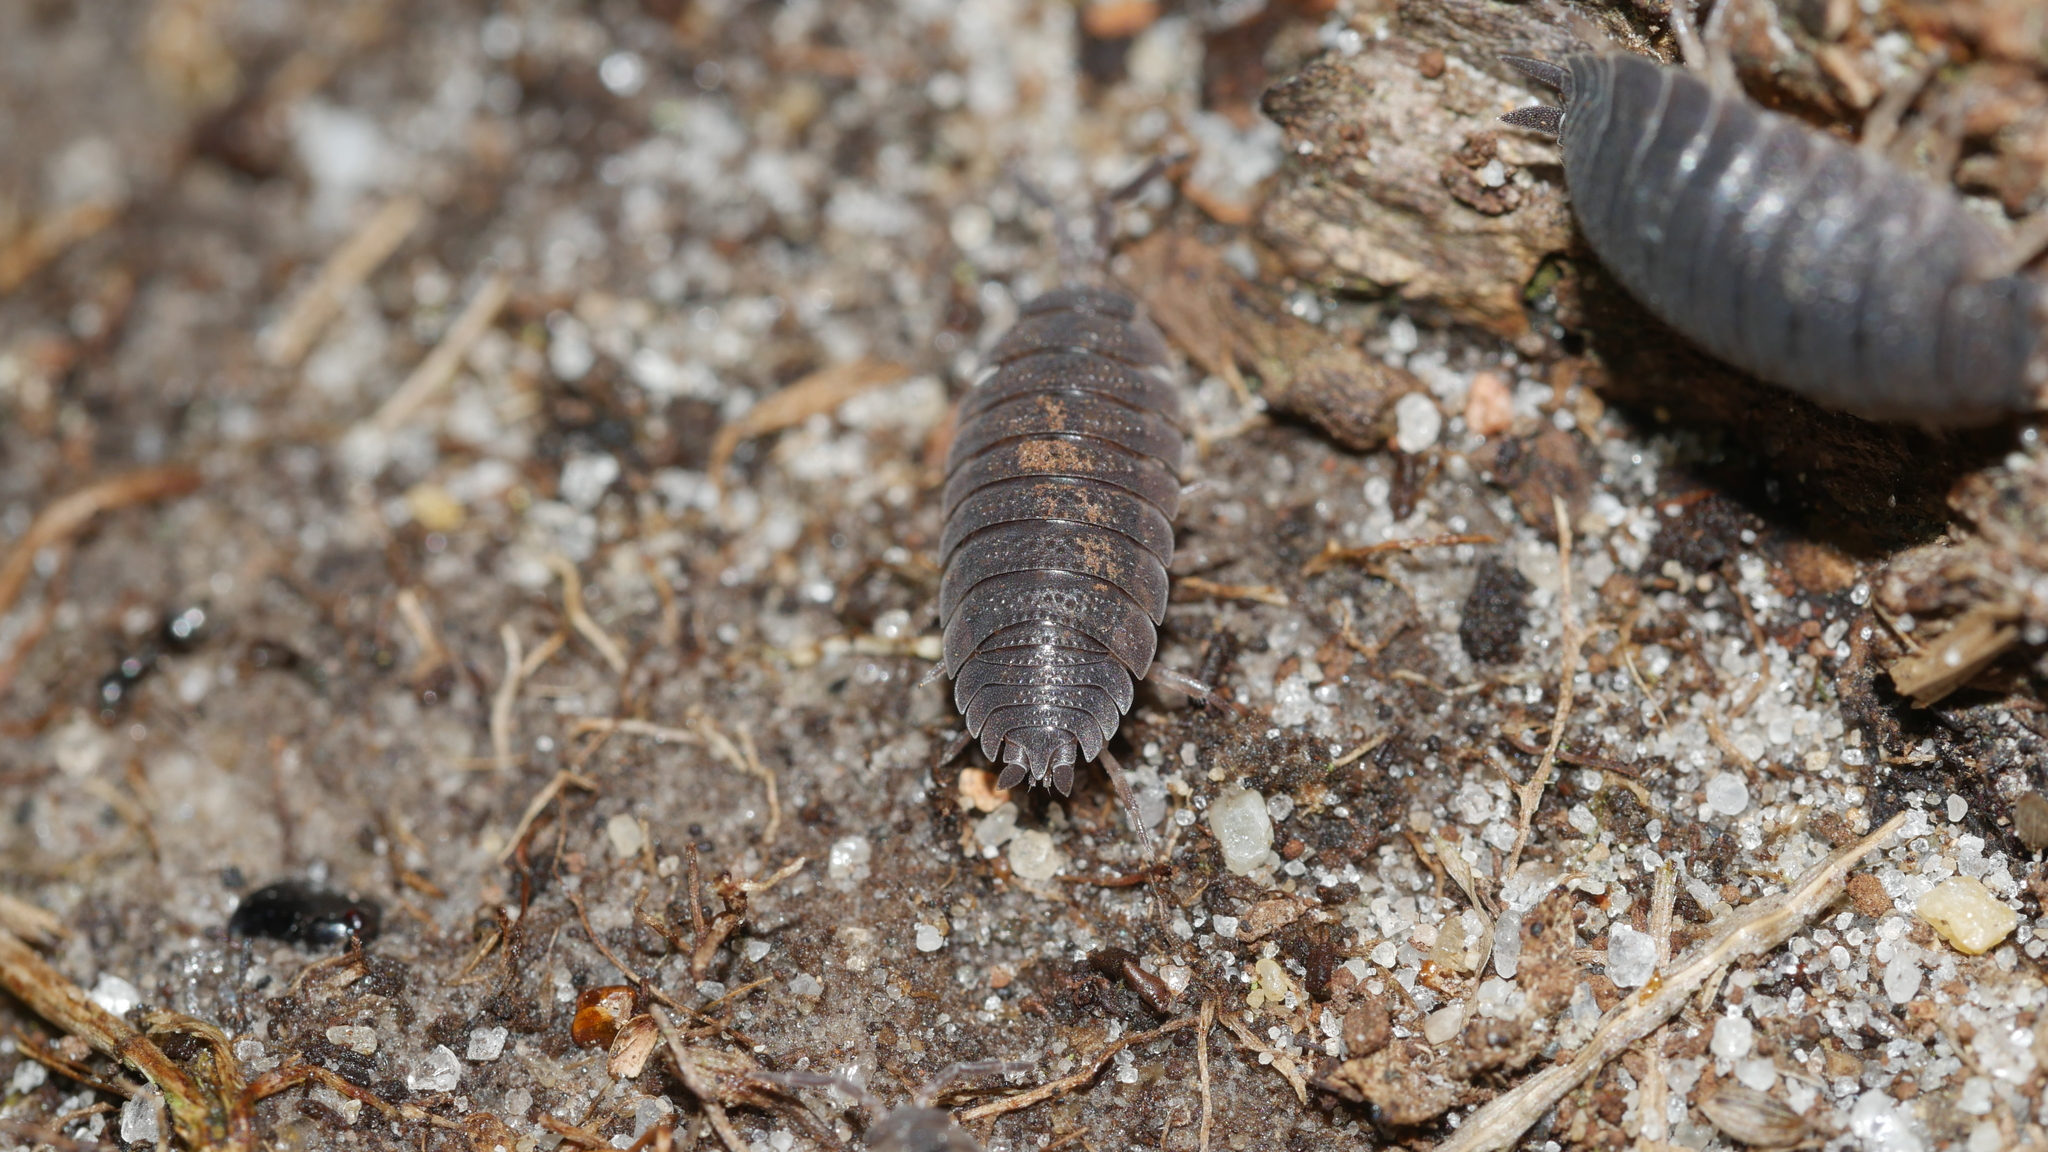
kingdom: Animalia
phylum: Arthropoda
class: Malacostraca
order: Isopoda
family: Porcellionidae
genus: Porcellio
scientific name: Porcellio scaber
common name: Common rough woodlouse
